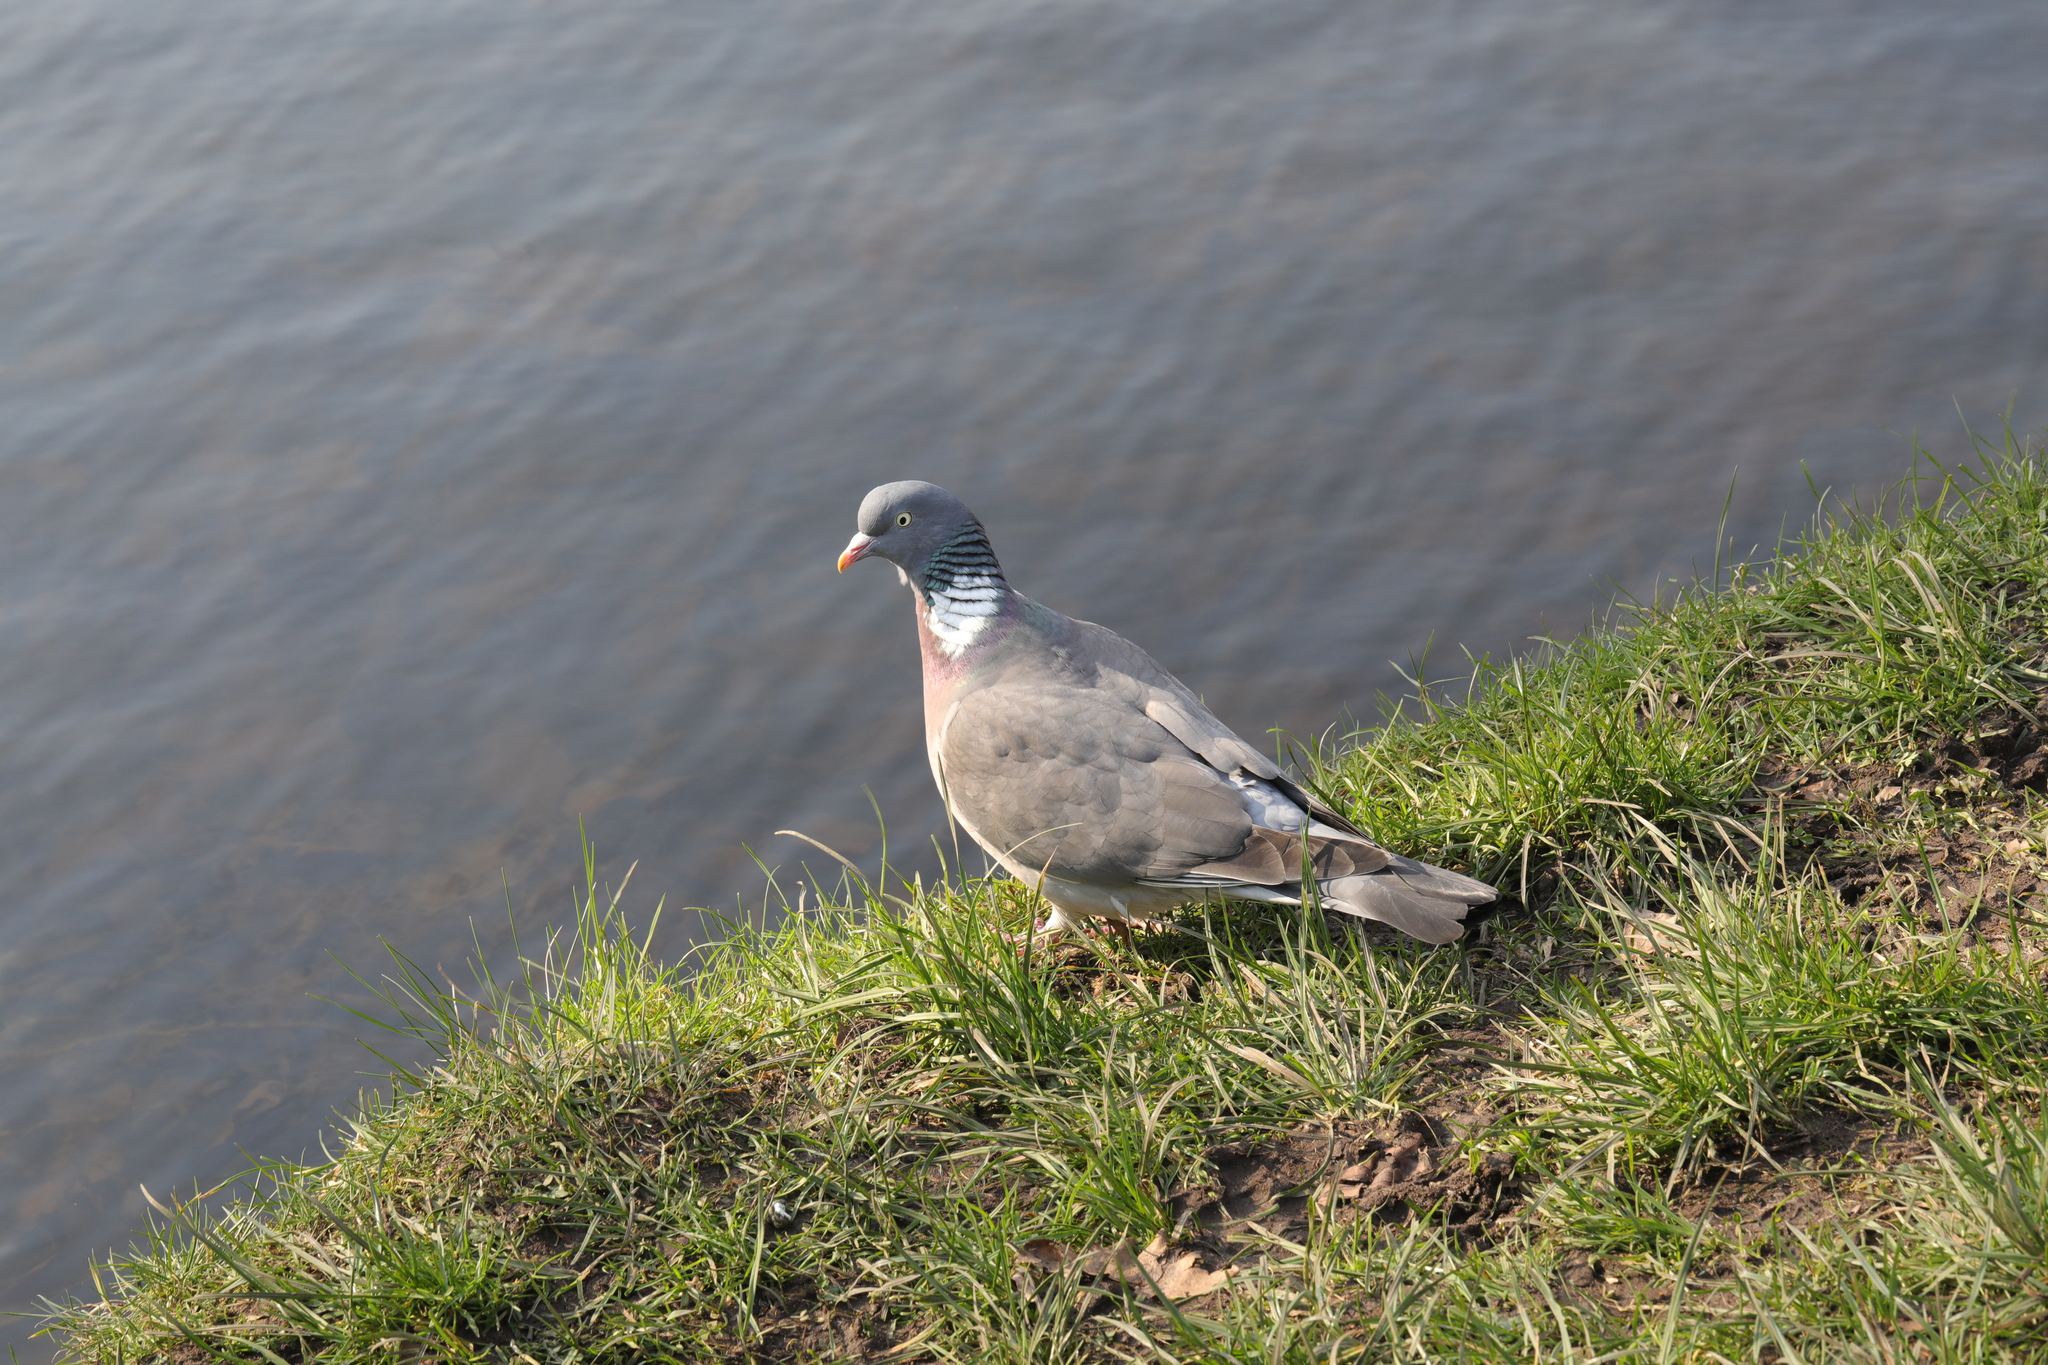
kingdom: Animalia
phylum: Chordata
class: Aves
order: Columbiformes
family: Columbidae
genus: Columba
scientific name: Columba palumbus
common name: Common wood pigeon
